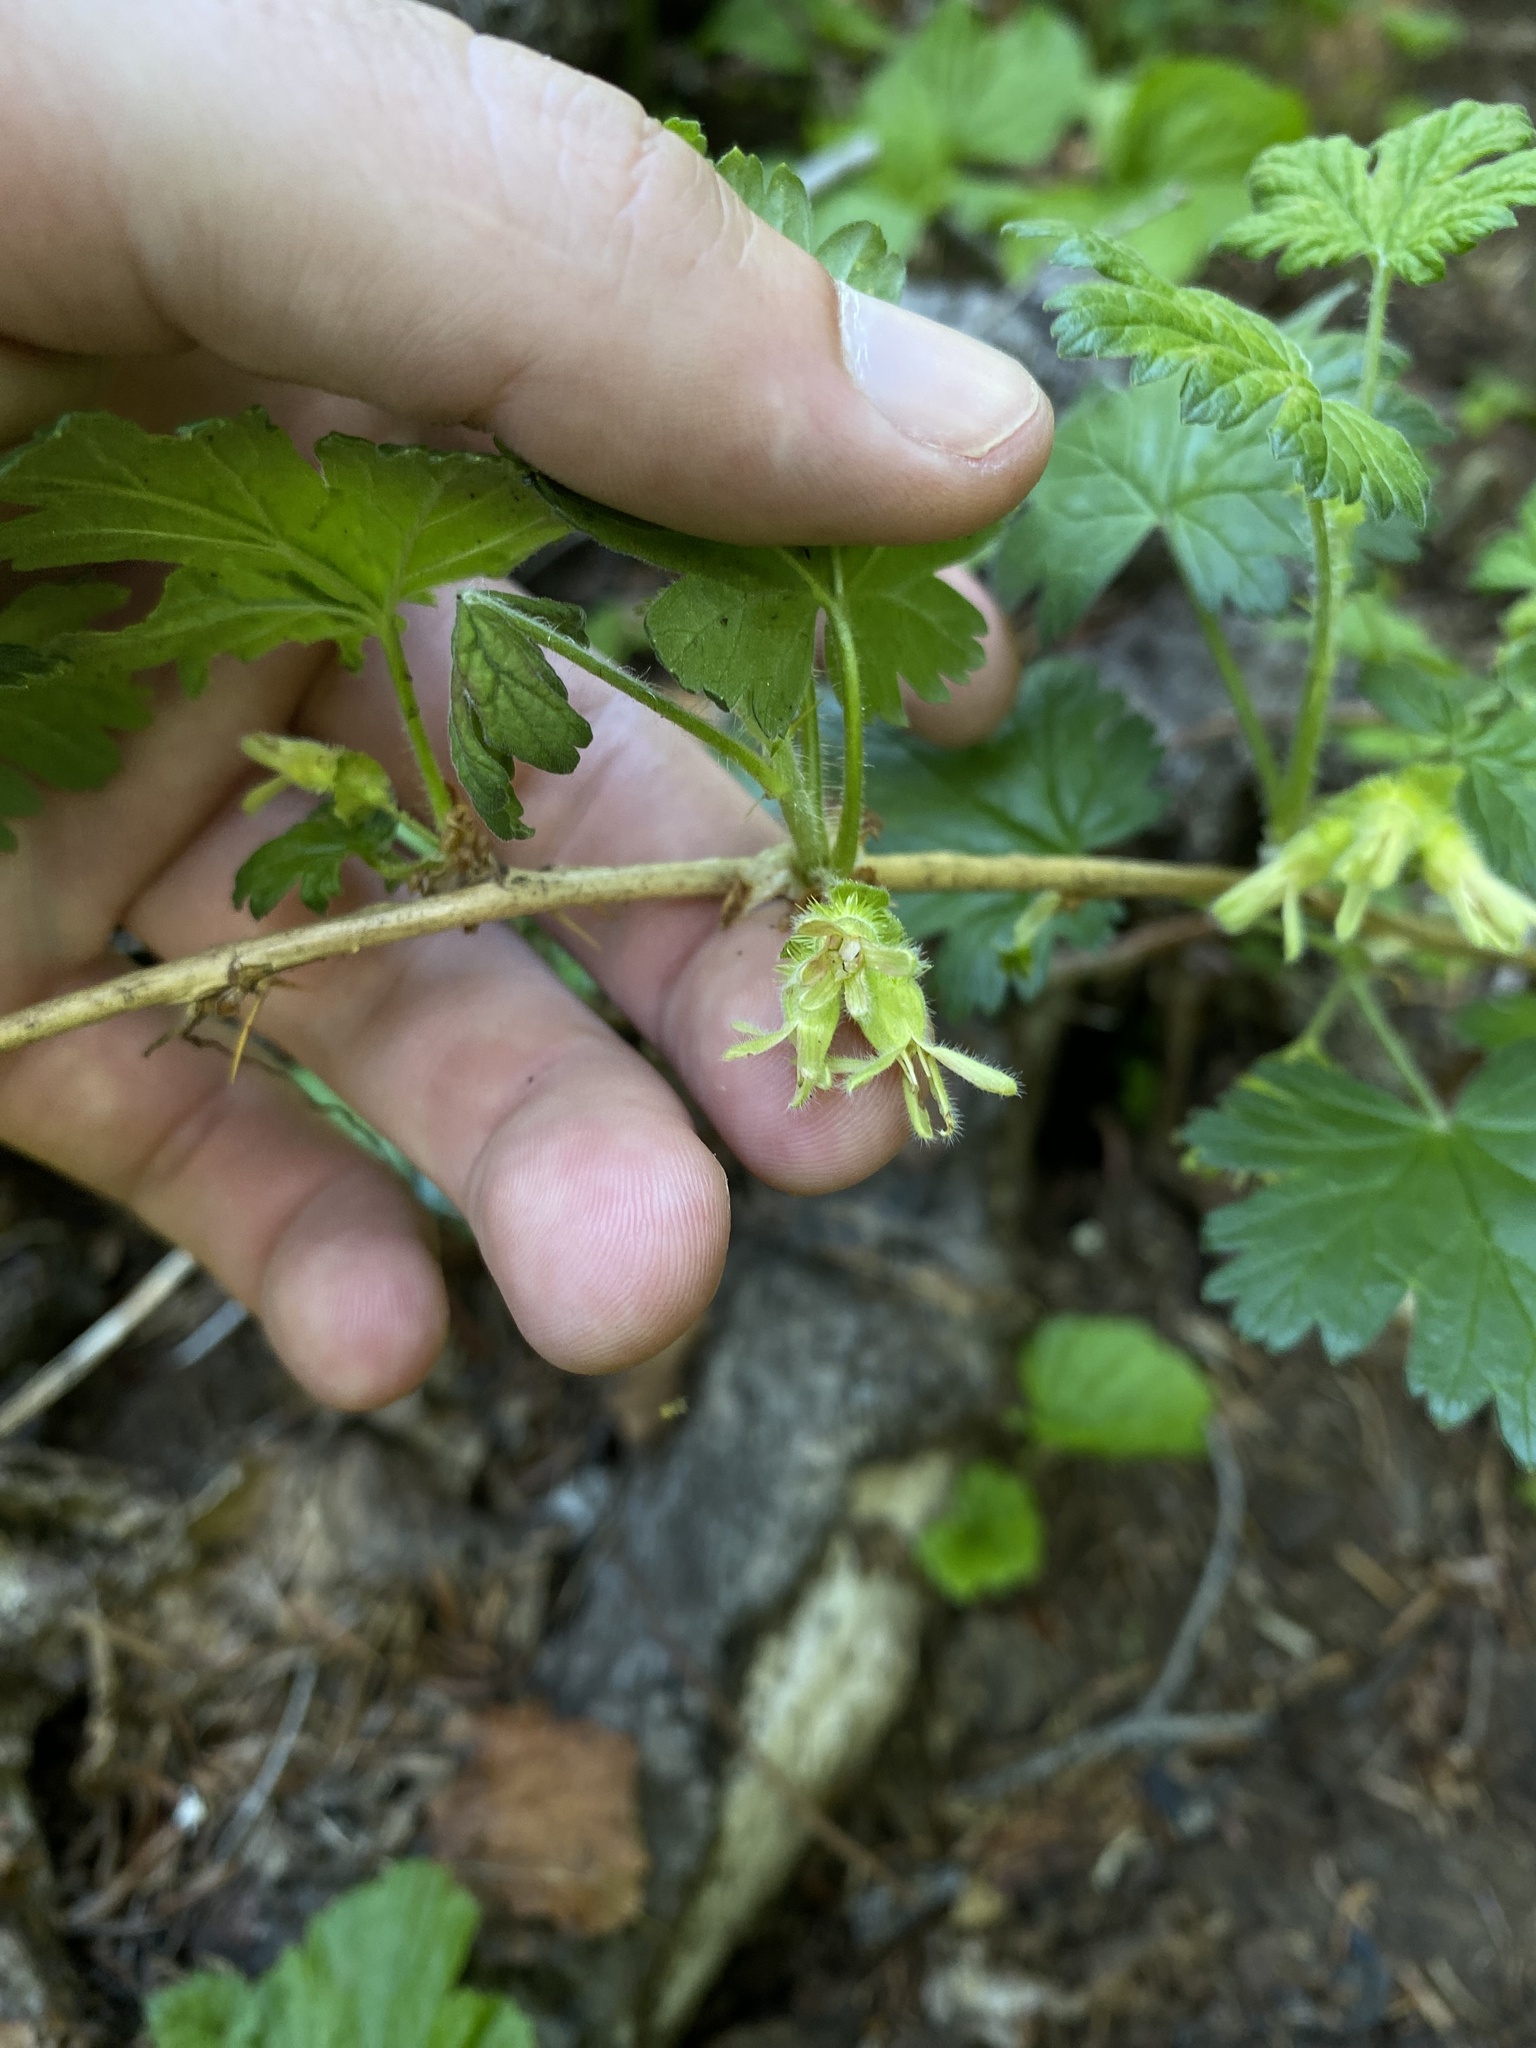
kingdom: Plantae
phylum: Tracheophyta
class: Magnoliopsida
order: Saxifragales
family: Grossulariaceae
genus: Ribes
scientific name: Ribes binominatum
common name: Trailing gooseberry
